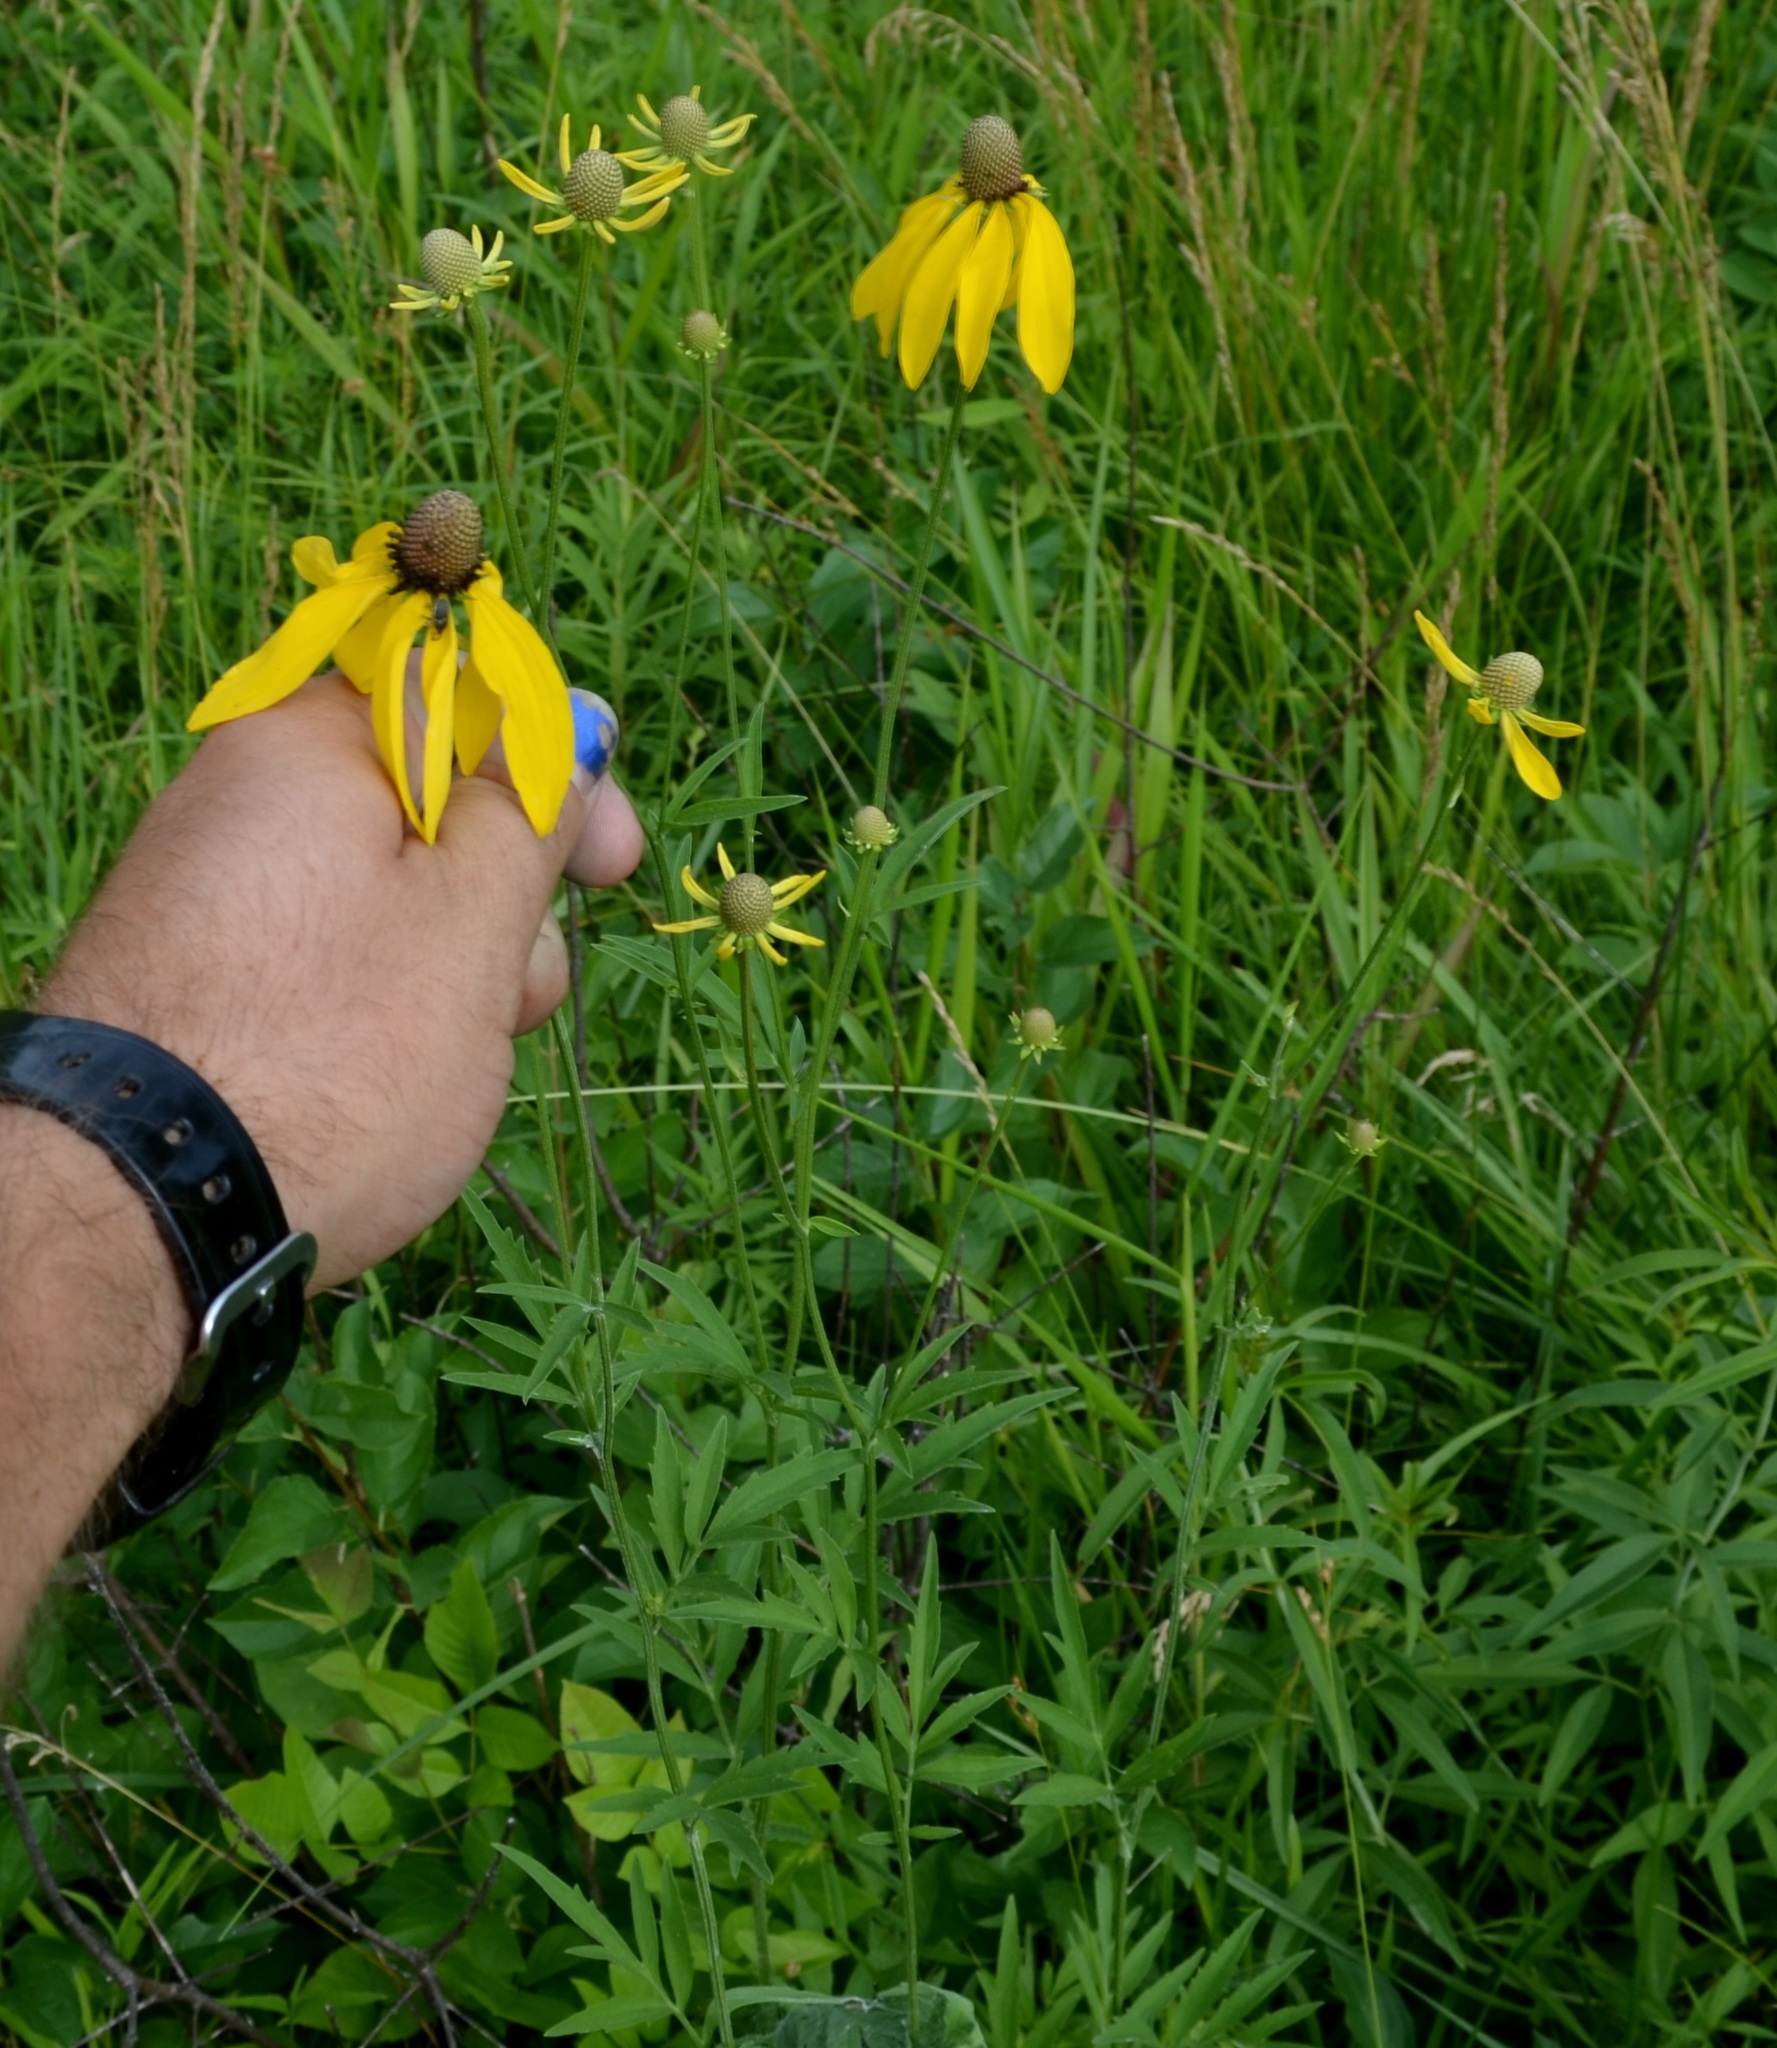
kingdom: Plantae
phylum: Tracheophyta
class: Magnoliopsida
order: Asterales
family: Asteraceae
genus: Ratibida
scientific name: Ratibida pinnata
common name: Drooping prairie-coneflower
